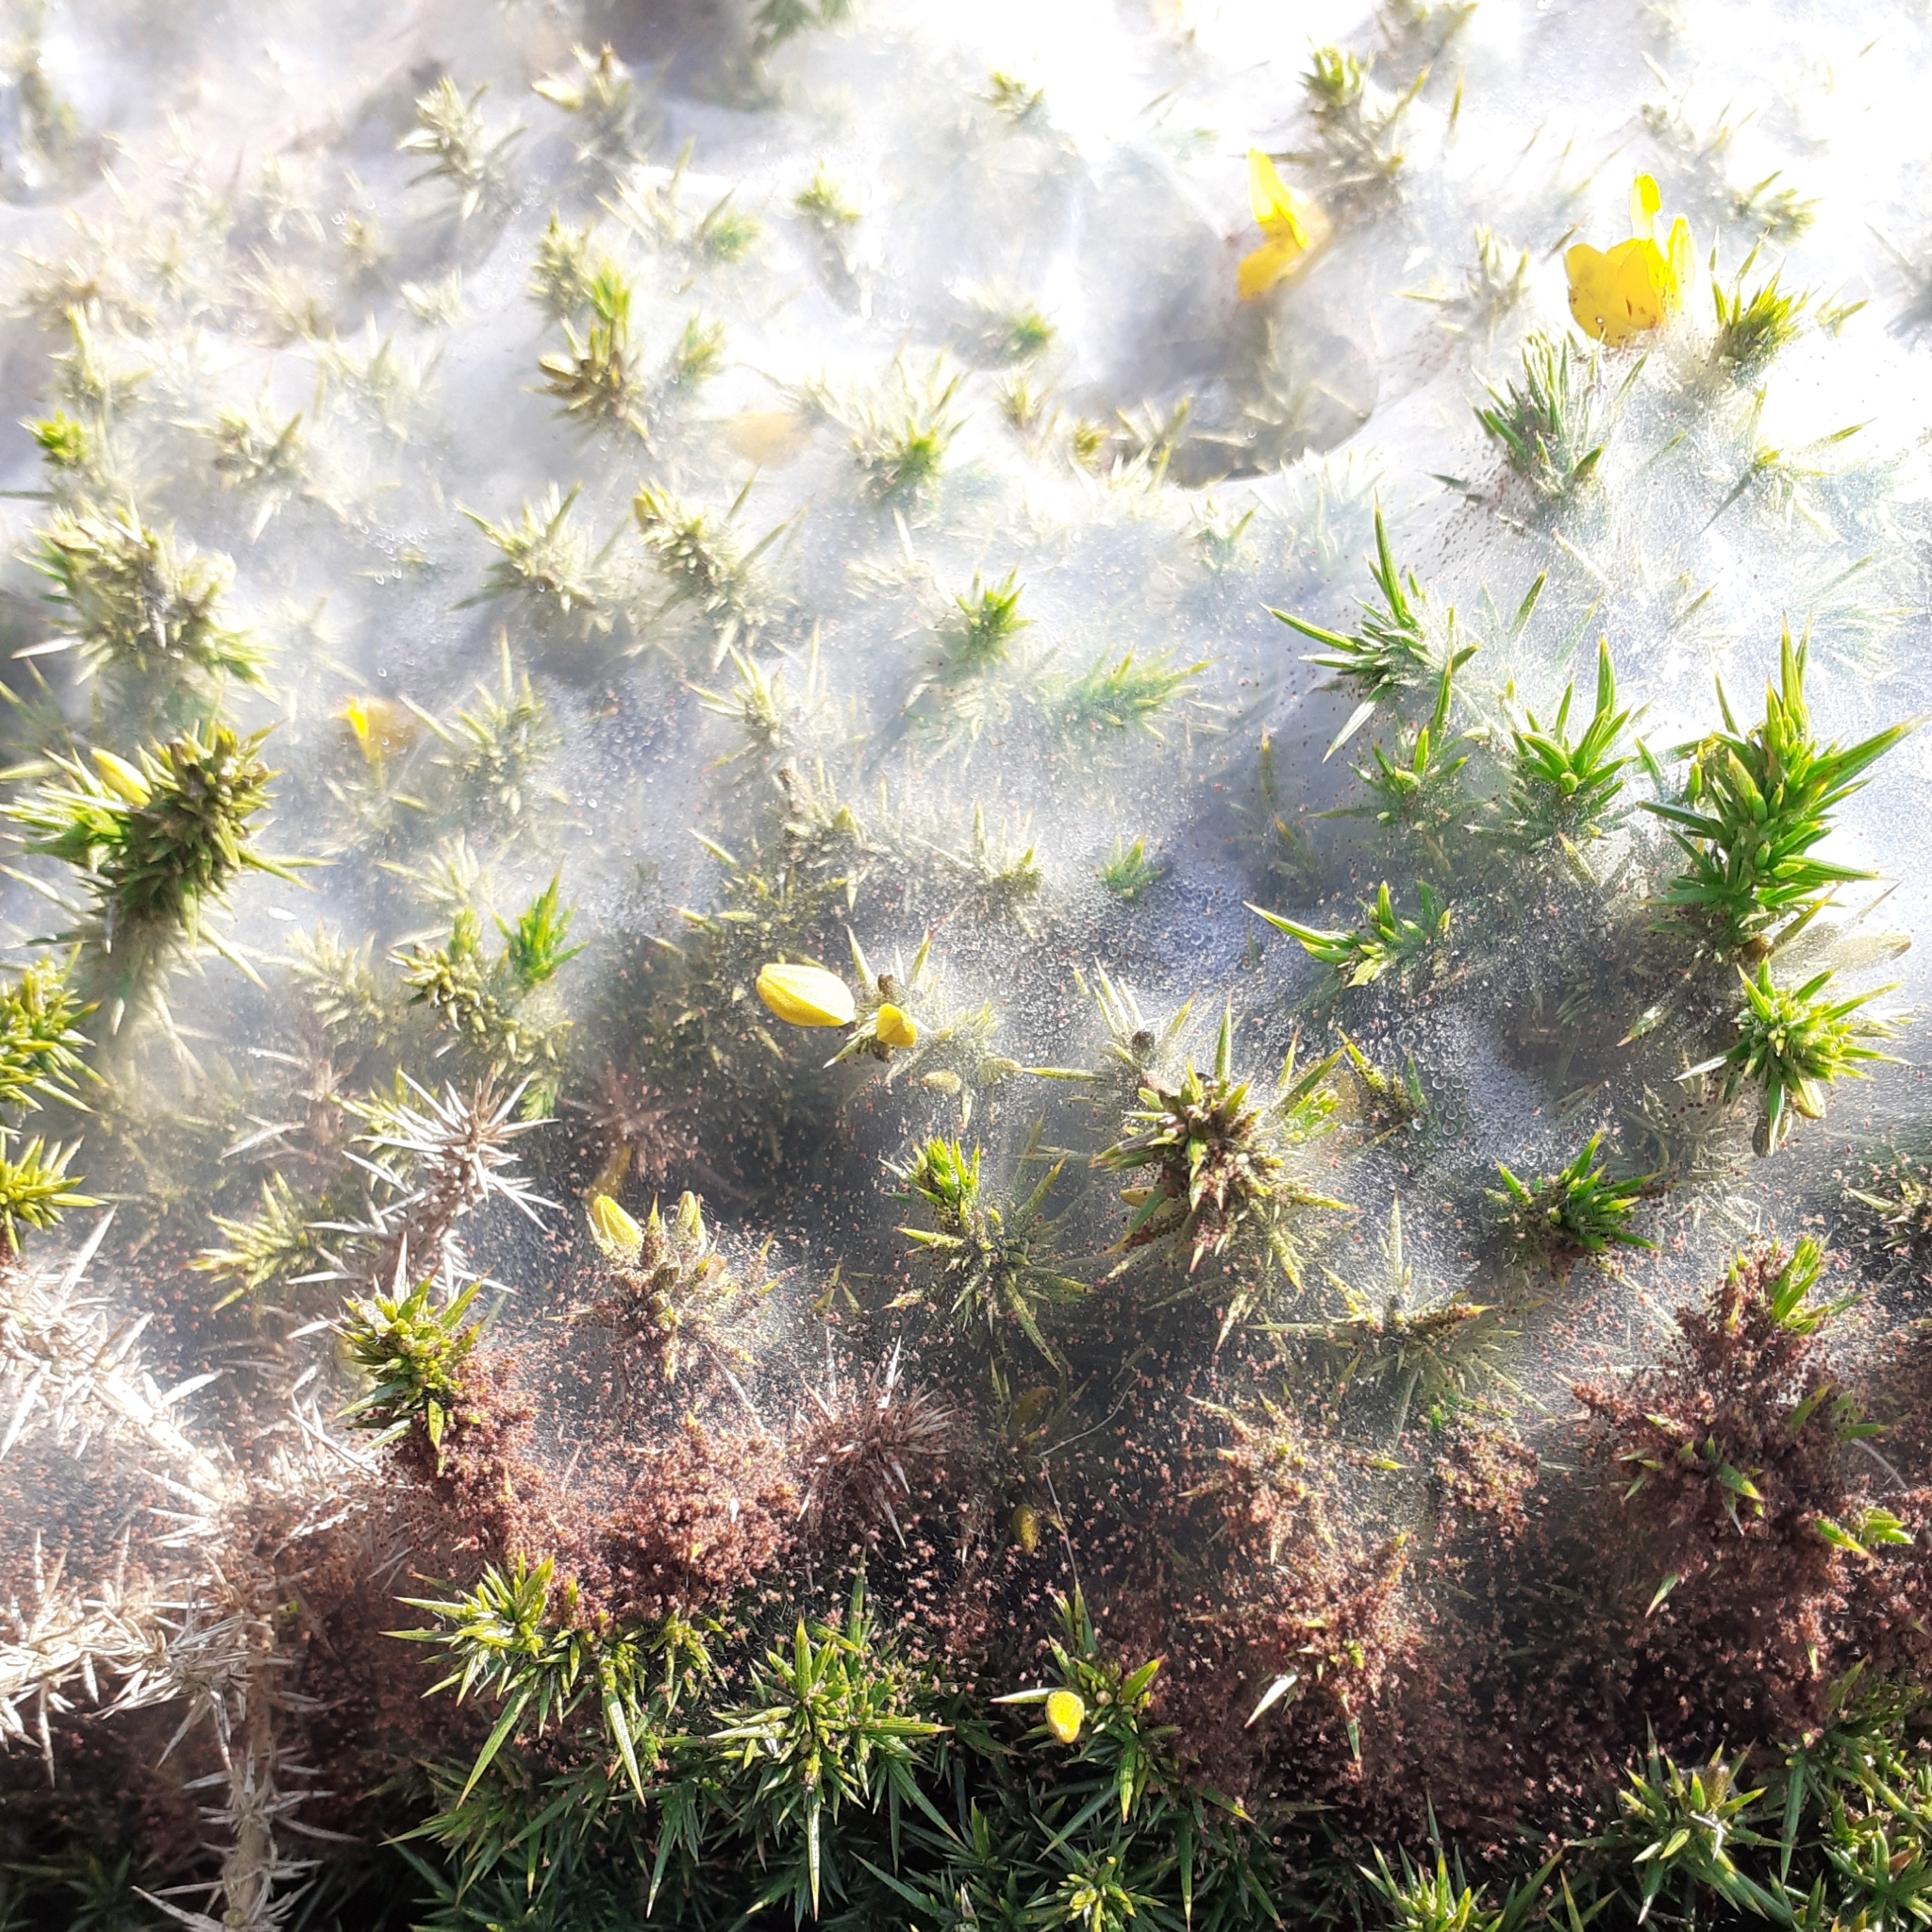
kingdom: Animalia
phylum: Arthropoda
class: Arachnida
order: Trombidiformes
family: Tetranychidae
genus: Tetranychus
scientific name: Tetranychus lintearius
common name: Gorse spider mite
